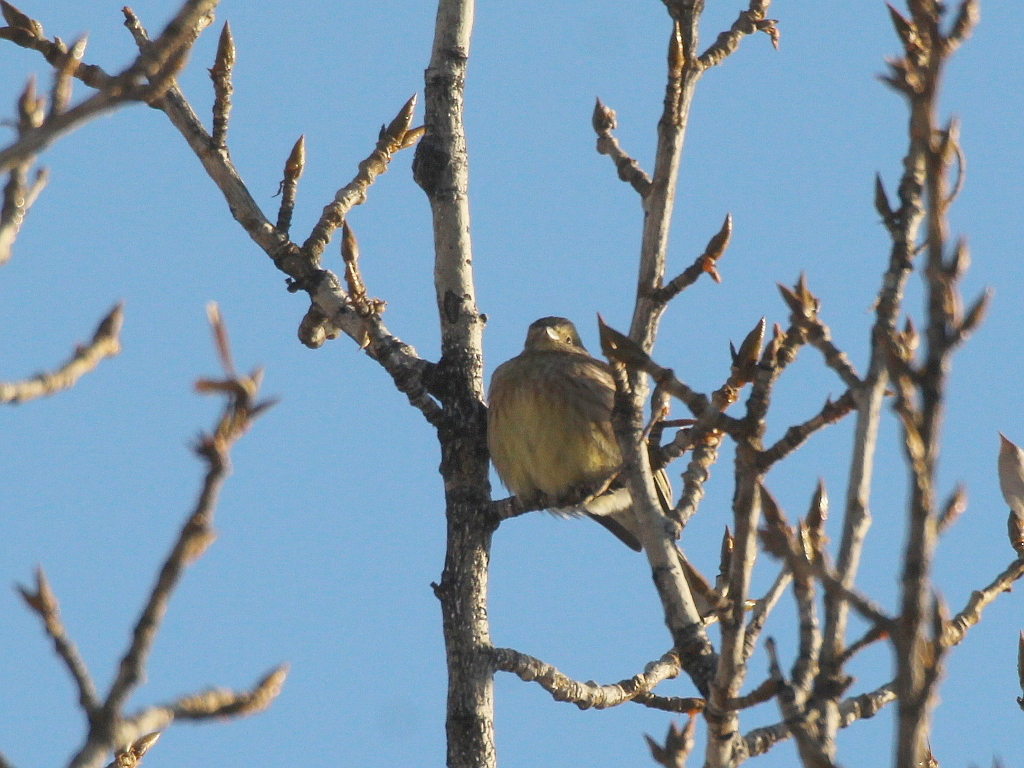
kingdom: Animalia
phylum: Chordata
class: Aves
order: Passeriformes
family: Emberizidae
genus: Emberiza
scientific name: Emberiza citrinella
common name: Yellowhammer
